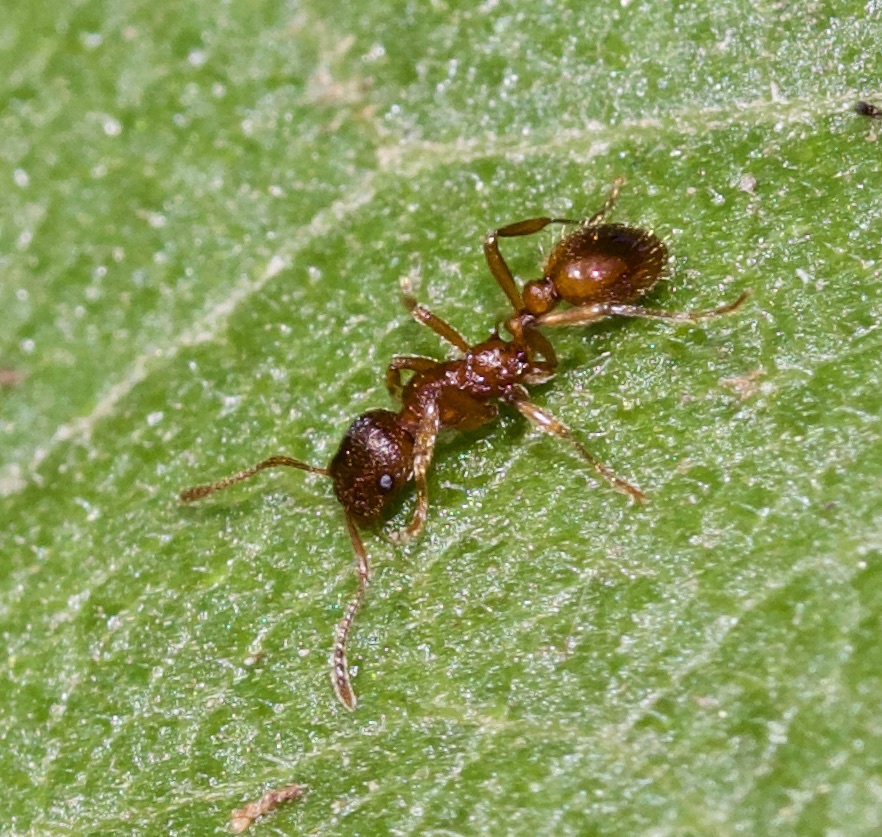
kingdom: Animalia
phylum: Arthropoda
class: Insecta
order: Hymenoptera
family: Formicidae
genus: Myrmica
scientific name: Myrmica rubra
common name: European fire ant
